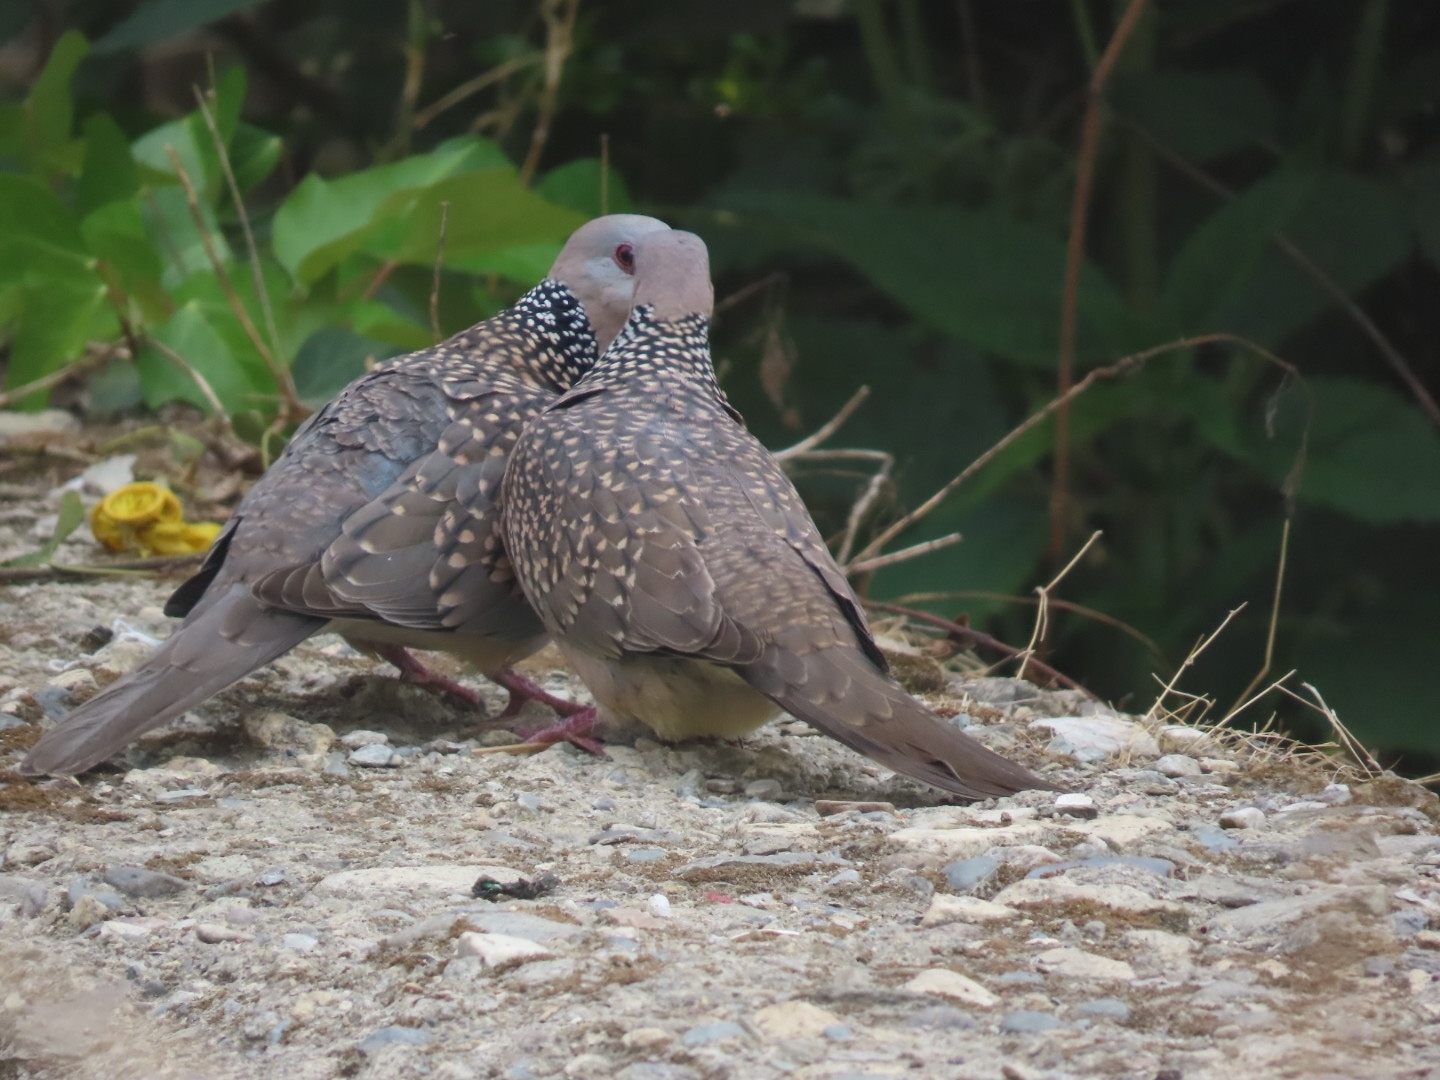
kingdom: Animalia
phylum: Chordata
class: Aves
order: Columbiformes
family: Columbidae
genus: Spilopelia
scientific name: Spilopelia chinensis
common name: Spotted dove
